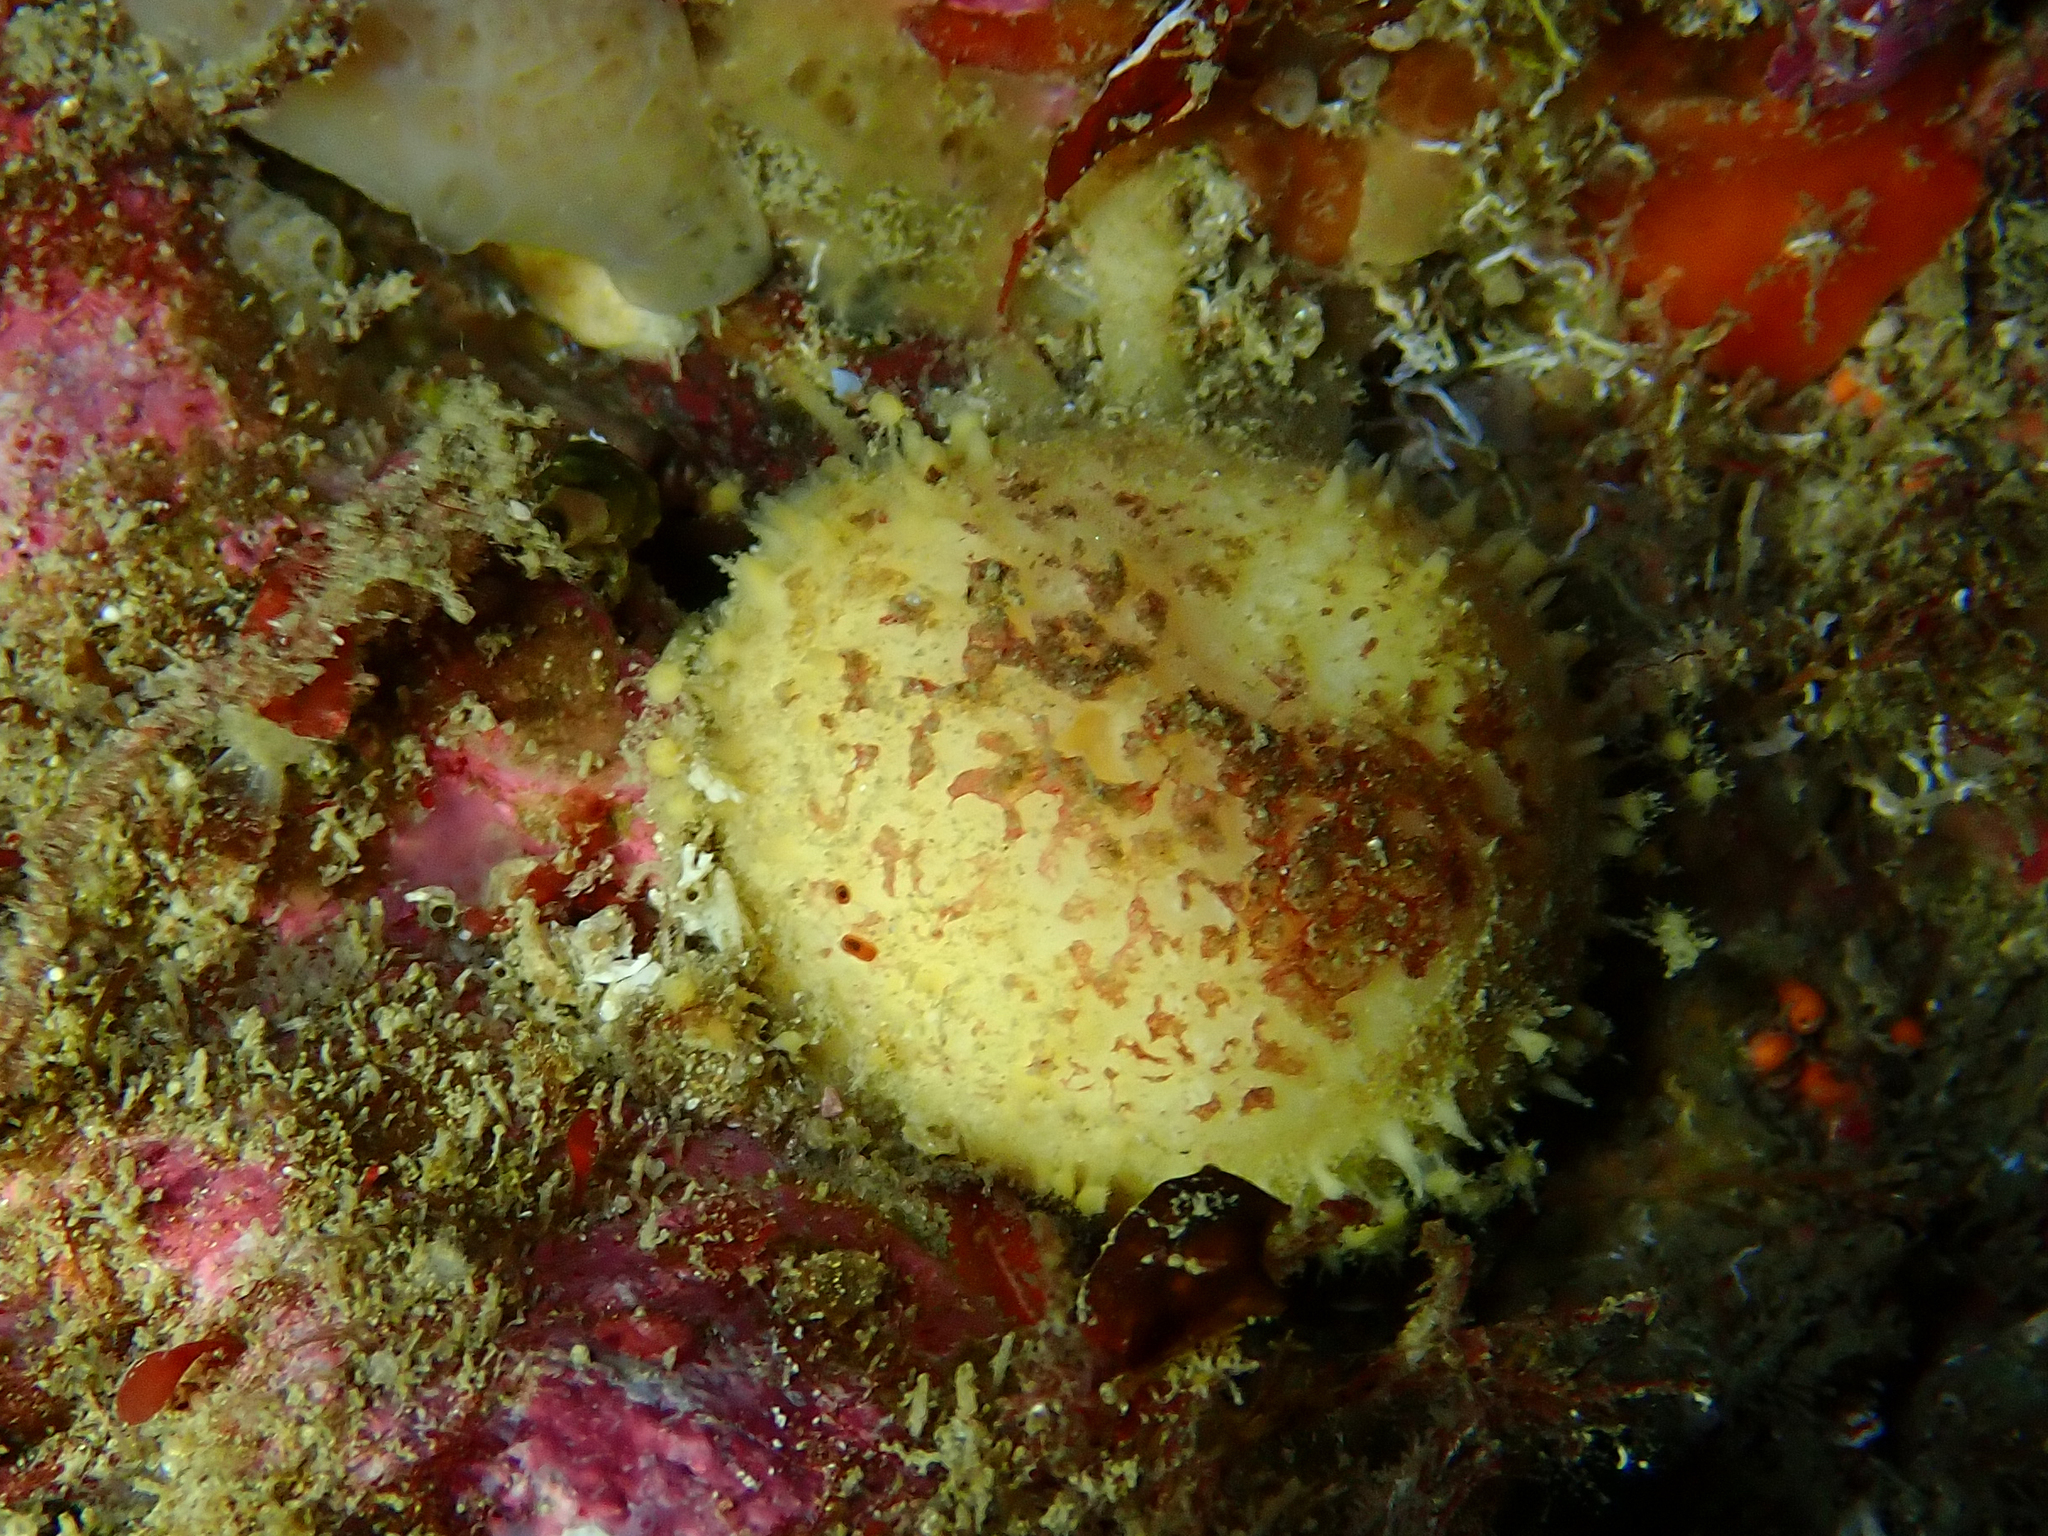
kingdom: Animalia
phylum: Porifera
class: Demospongiae
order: Tethyida
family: Tethyidae
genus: Tethya
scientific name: Tethya citrina
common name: Sea lemon
